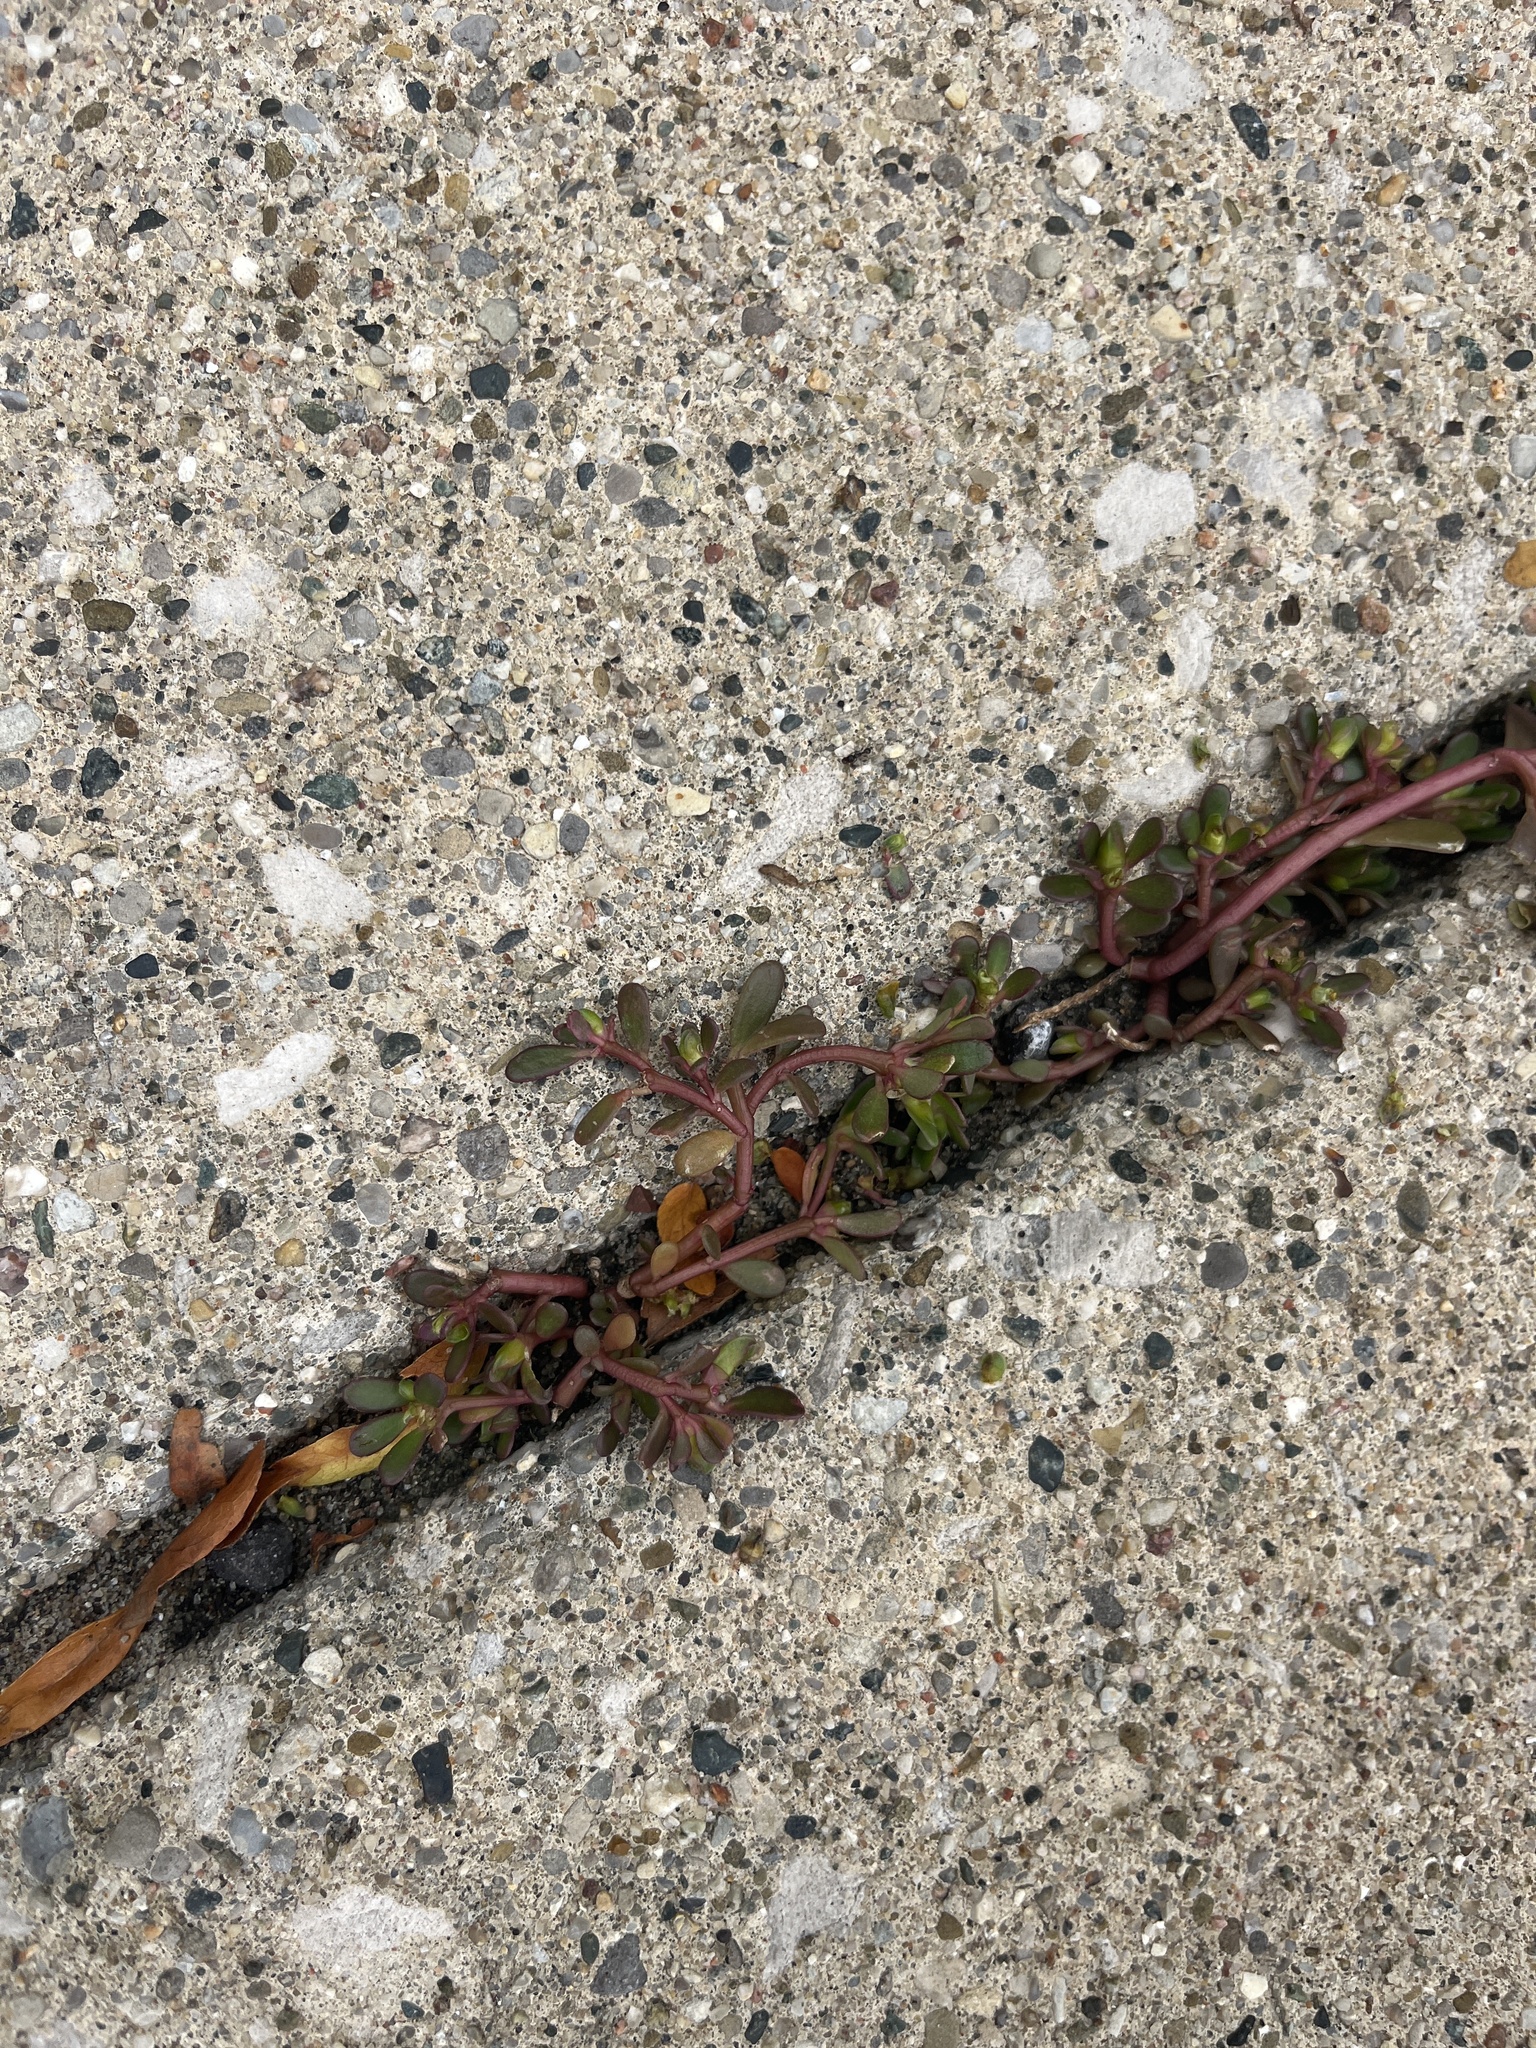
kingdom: Plantae
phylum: Tracheophyta
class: Magnoliopsida
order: Caryophyllales
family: Portulacaceae
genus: Portulaca
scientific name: Portulaca oleracea
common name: Common purslane
